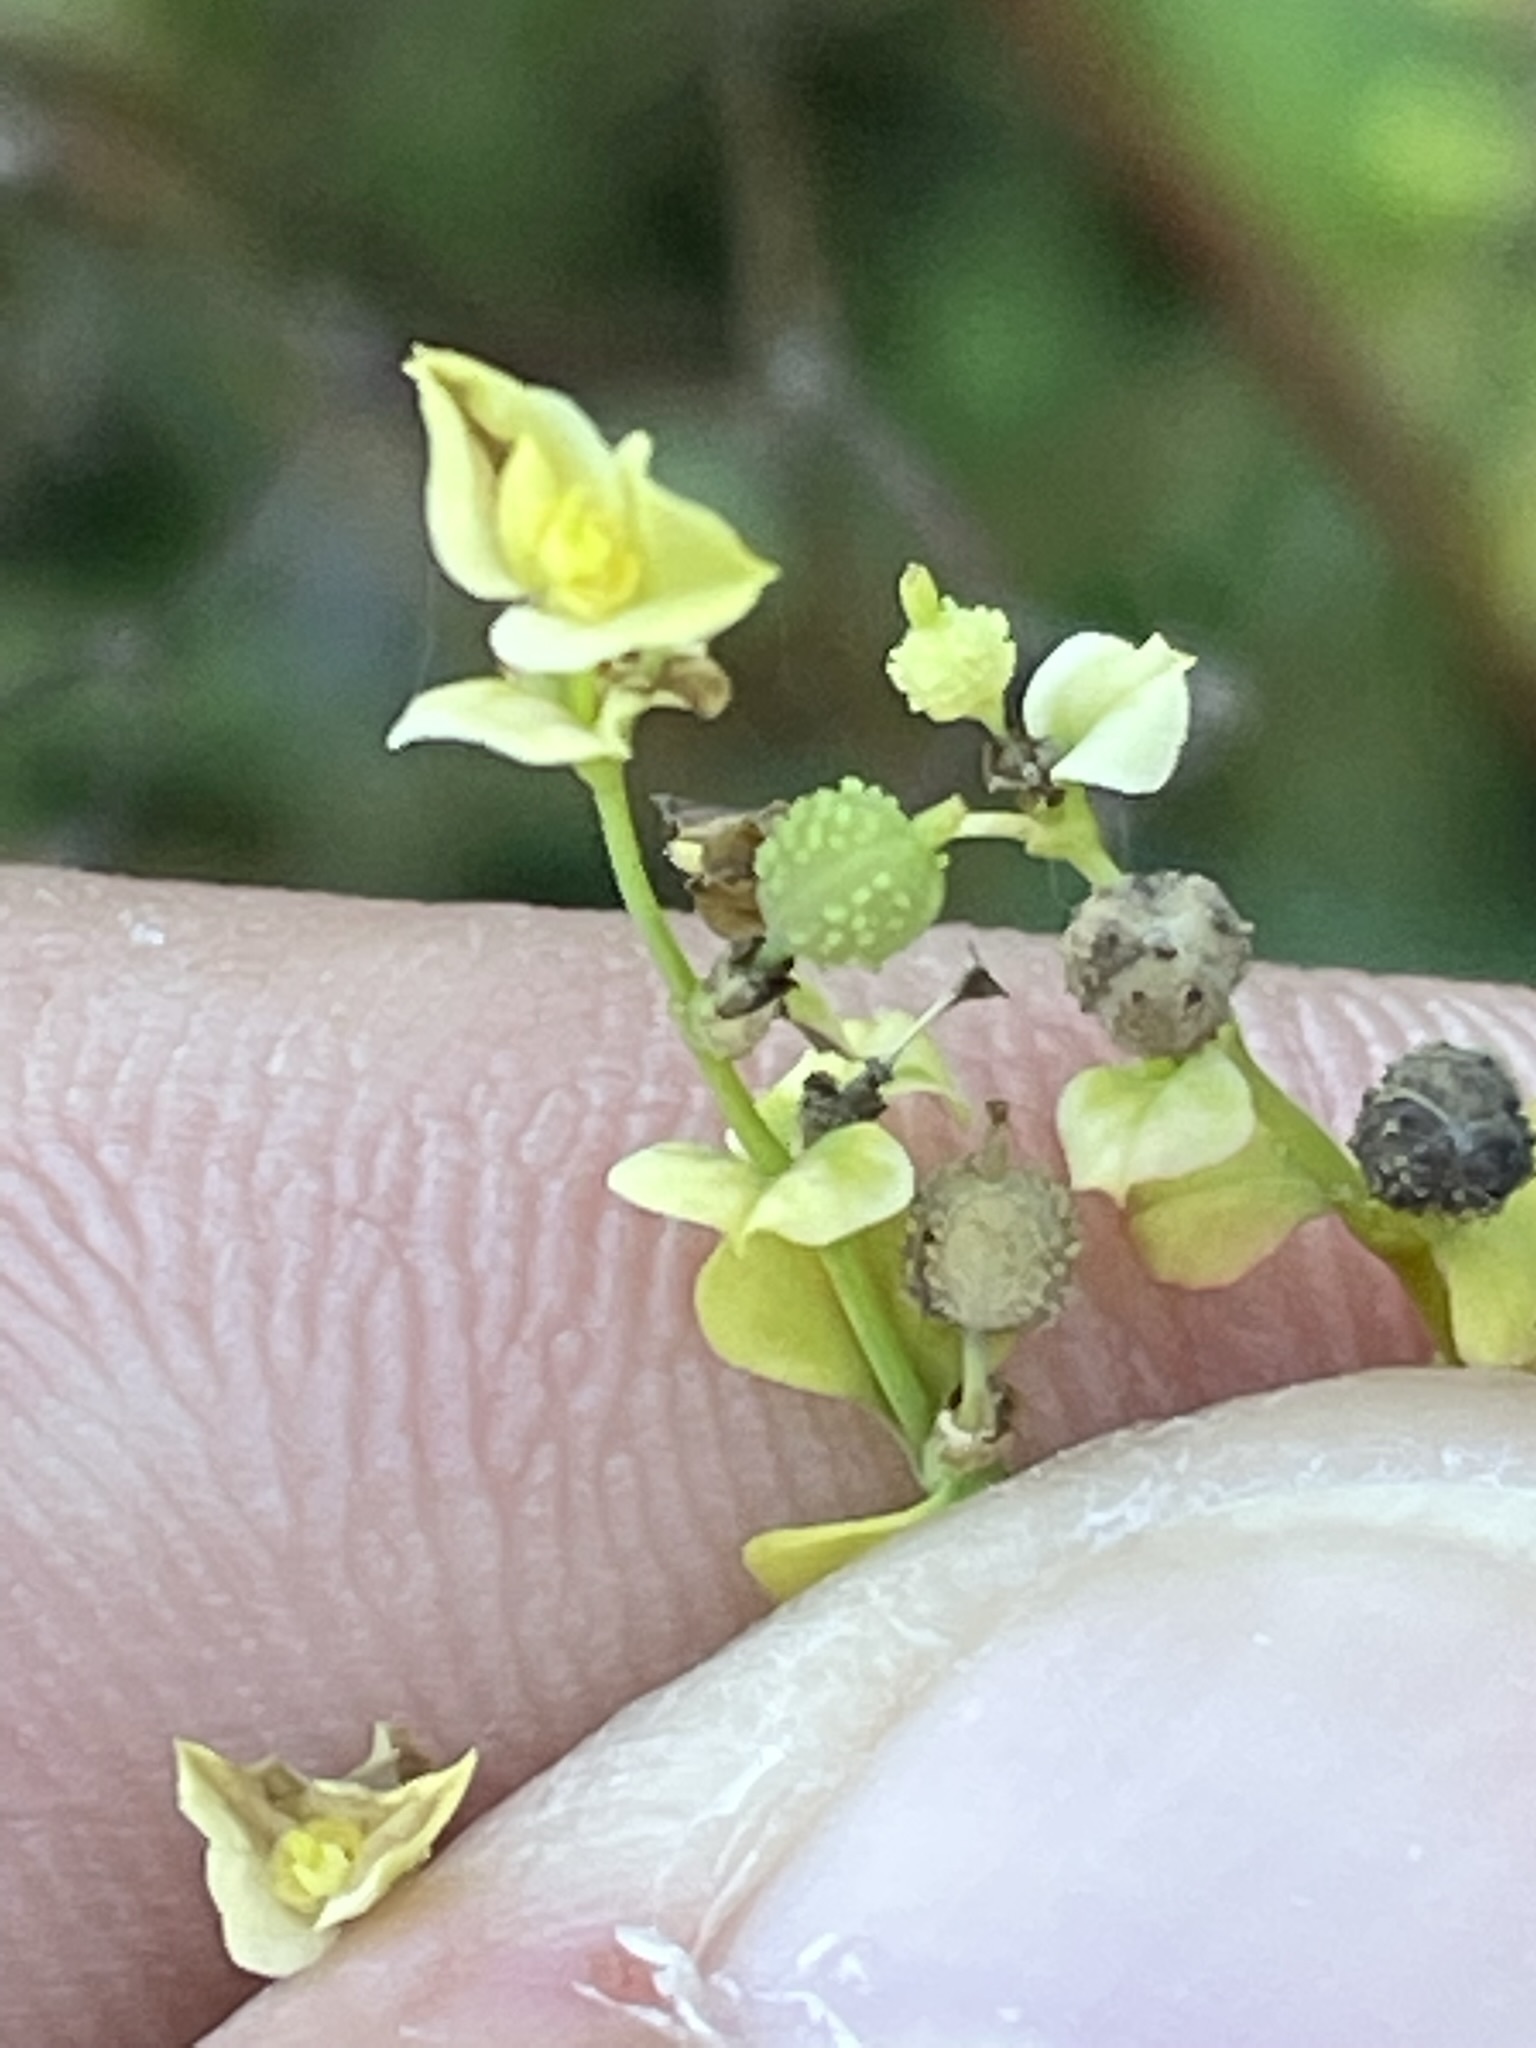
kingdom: Plantae
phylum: Tracheophyta
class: Magnoliopsida
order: Malpighiales
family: Euphorbiaceae
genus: Euphorbia
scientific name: Euphorbia stricta
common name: Upright spurge
